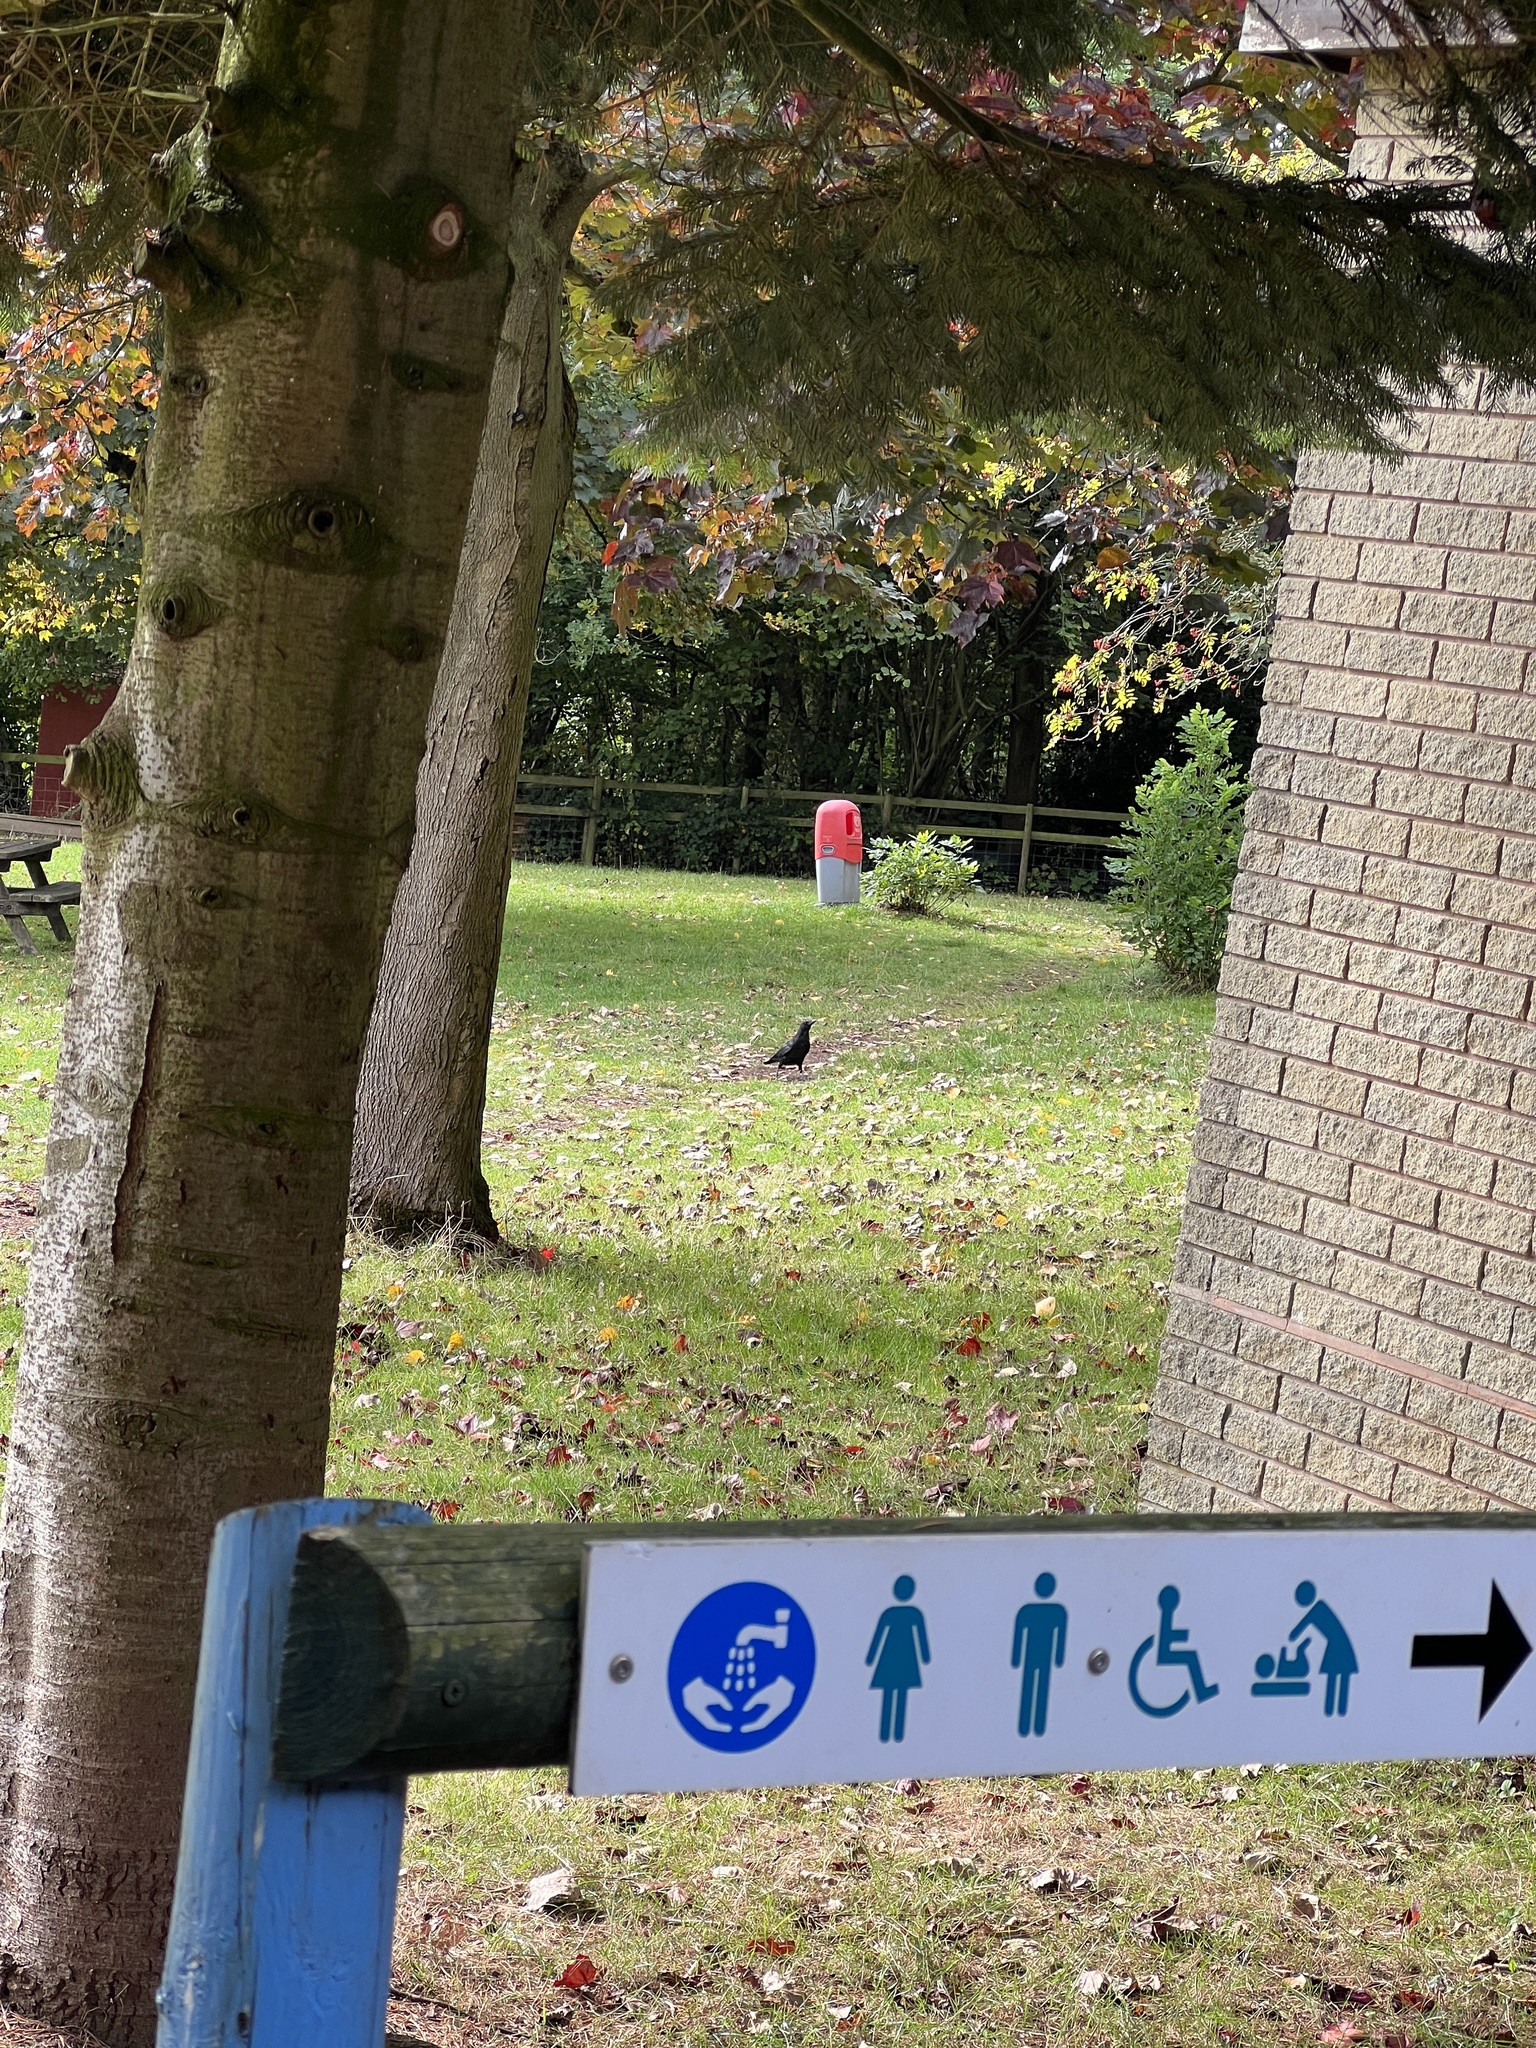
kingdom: Animalia
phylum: Chordata
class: Aves
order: Passeriformes
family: Corvidae
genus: Corvus
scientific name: Corvus corone
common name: Carrion crow
